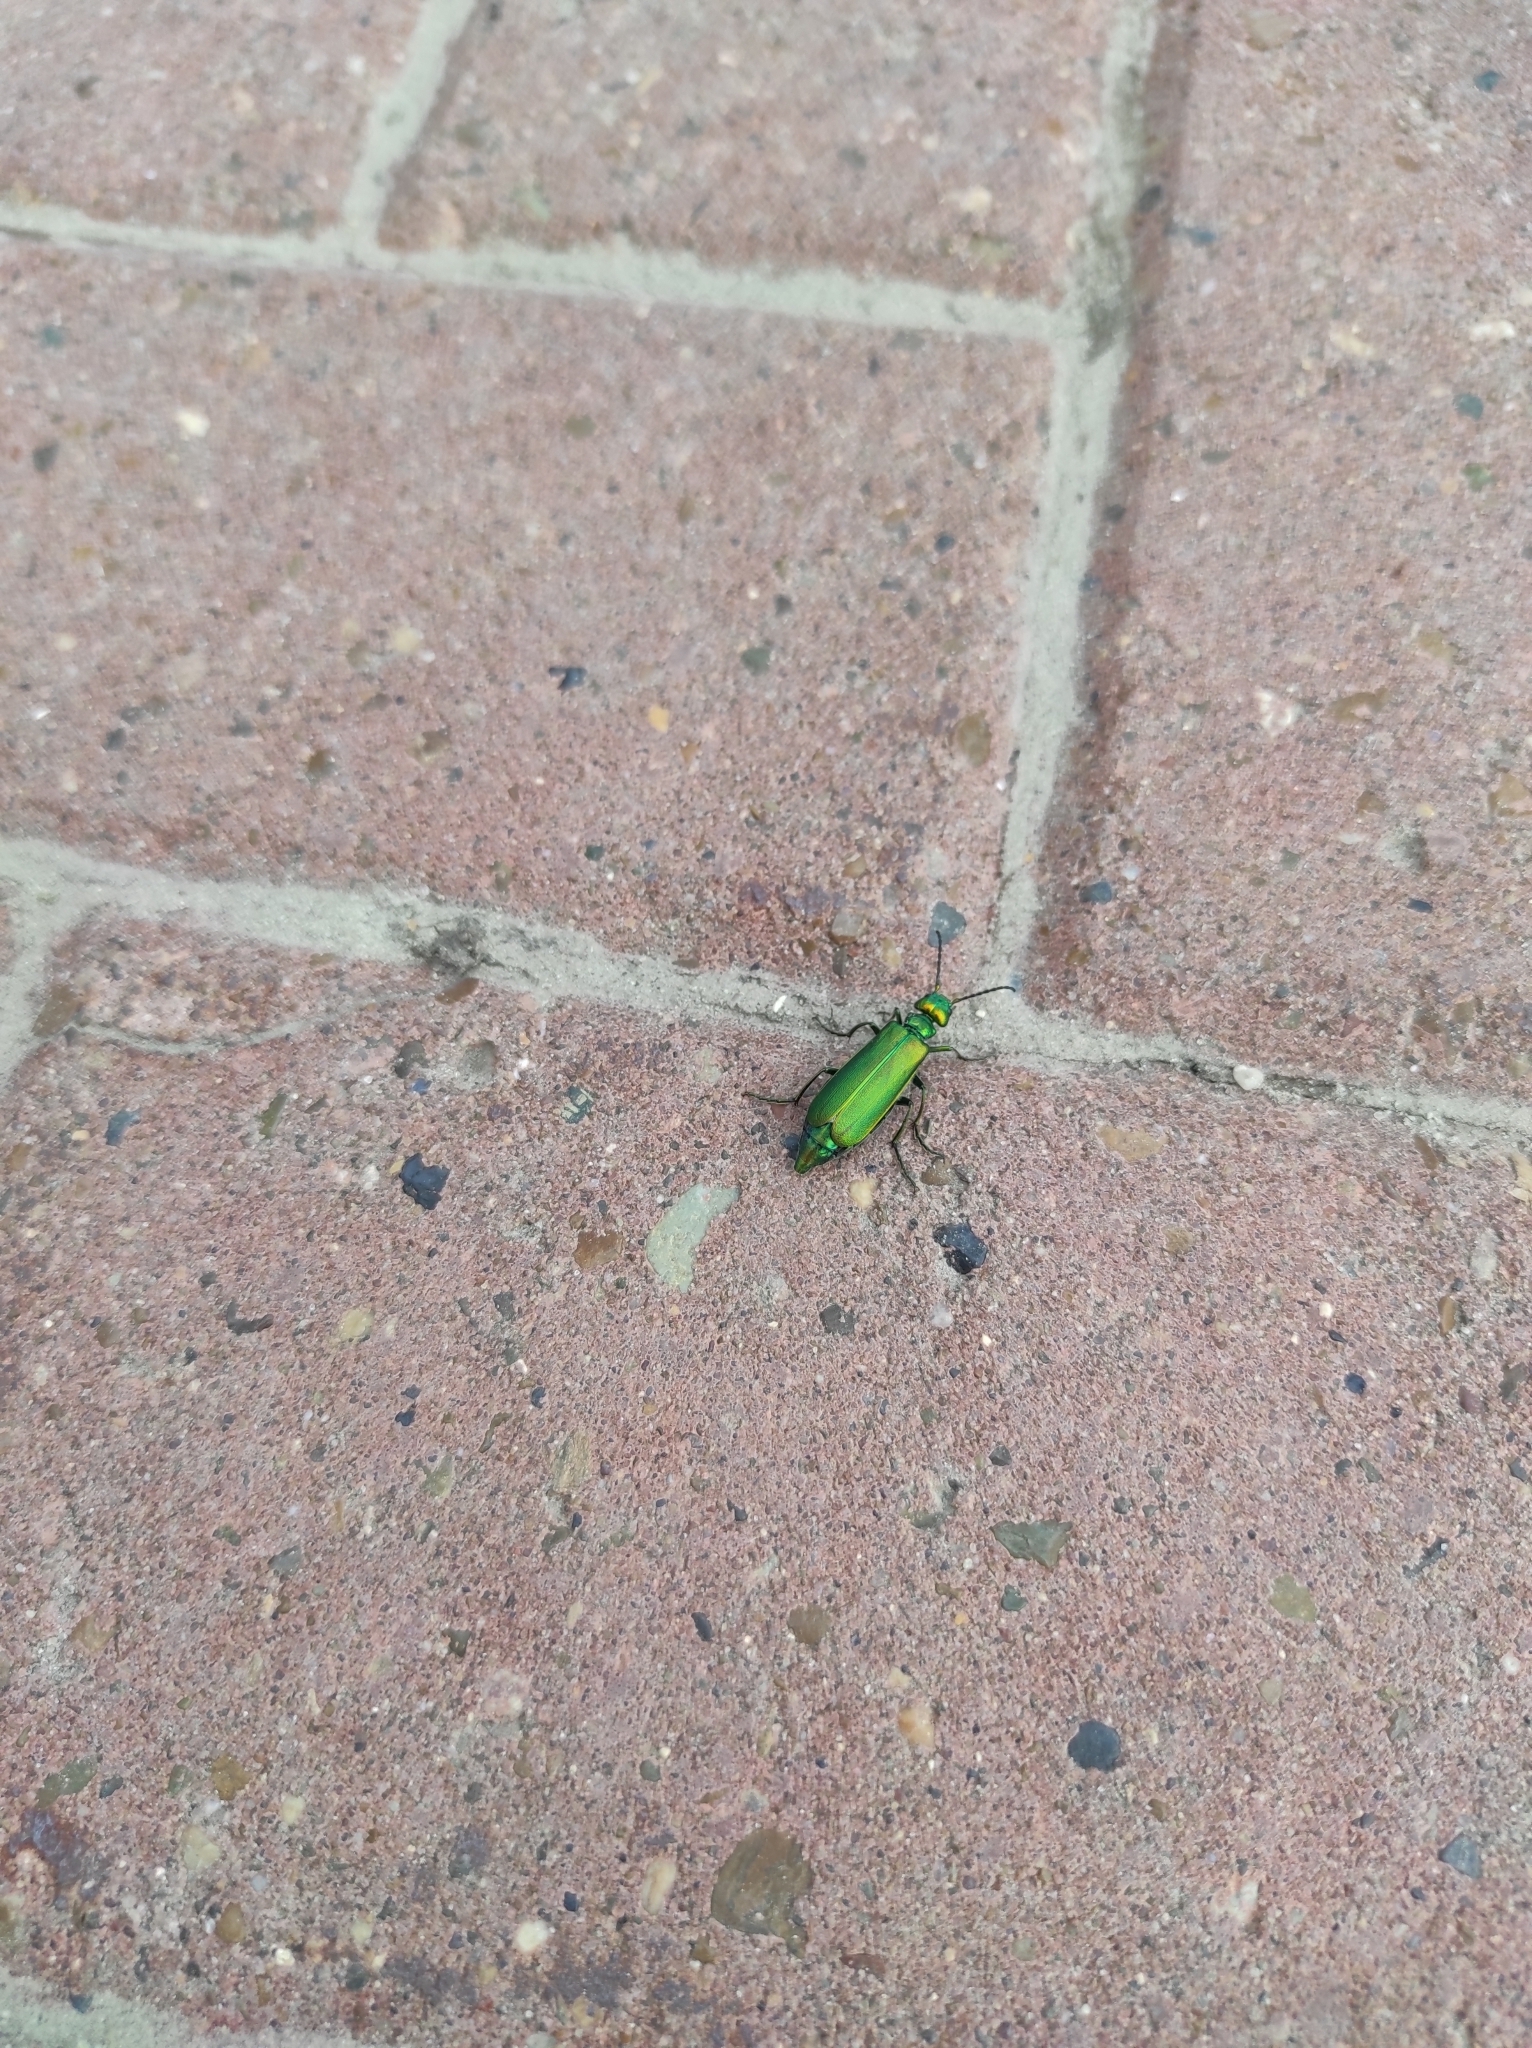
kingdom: Animalia
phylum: Arthropoda
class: Insecta
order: Coleoptera
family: Meloidae
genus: Lytta
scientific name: Lytta vesicatoria
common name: Spanish fly
